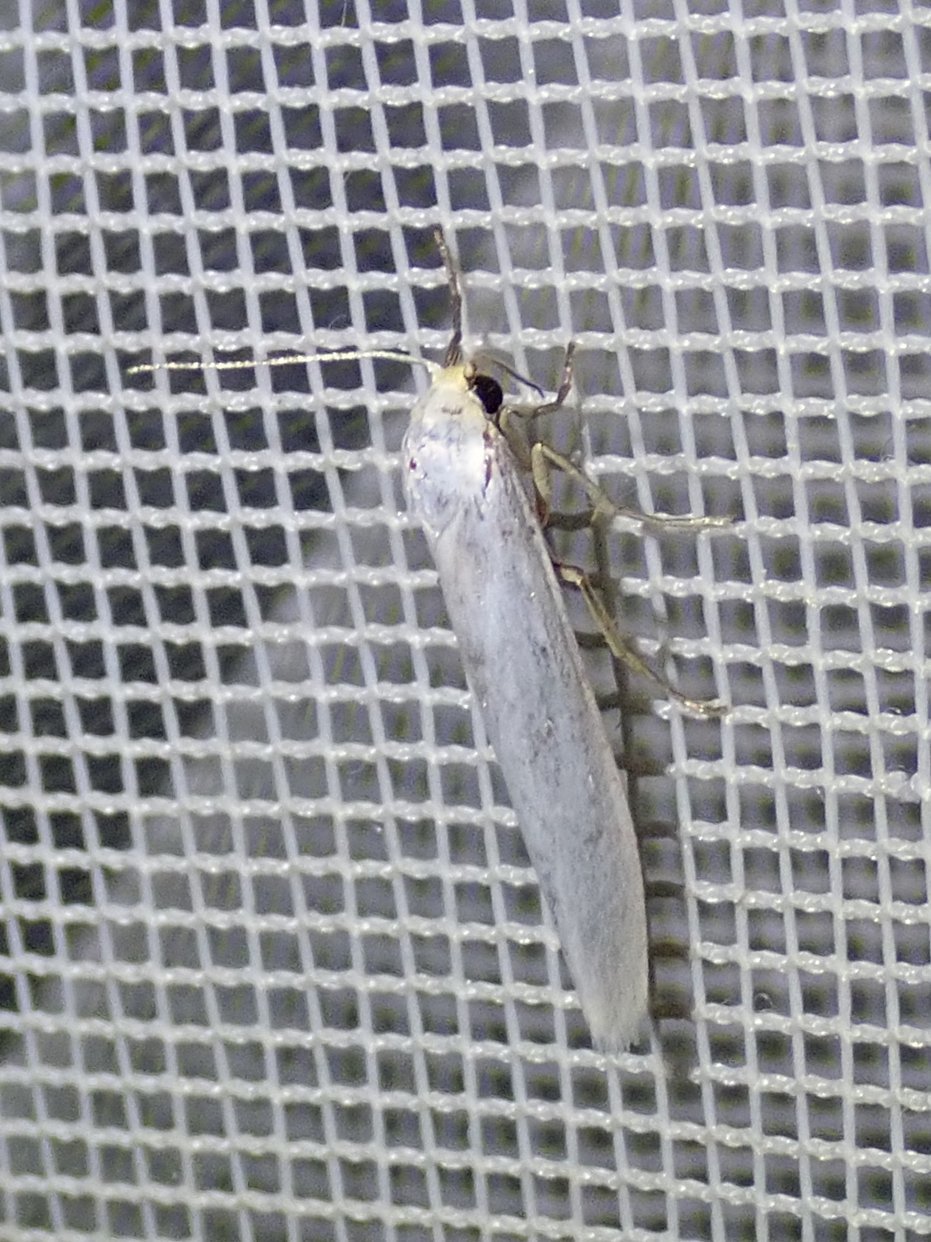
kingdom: Animalia
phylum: Arthropoda
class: Insecta
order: Lepidoptera
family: Erebidae
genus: Crambidia
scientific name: Crambidia cephalica
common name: Yellow-headed lichen moth
